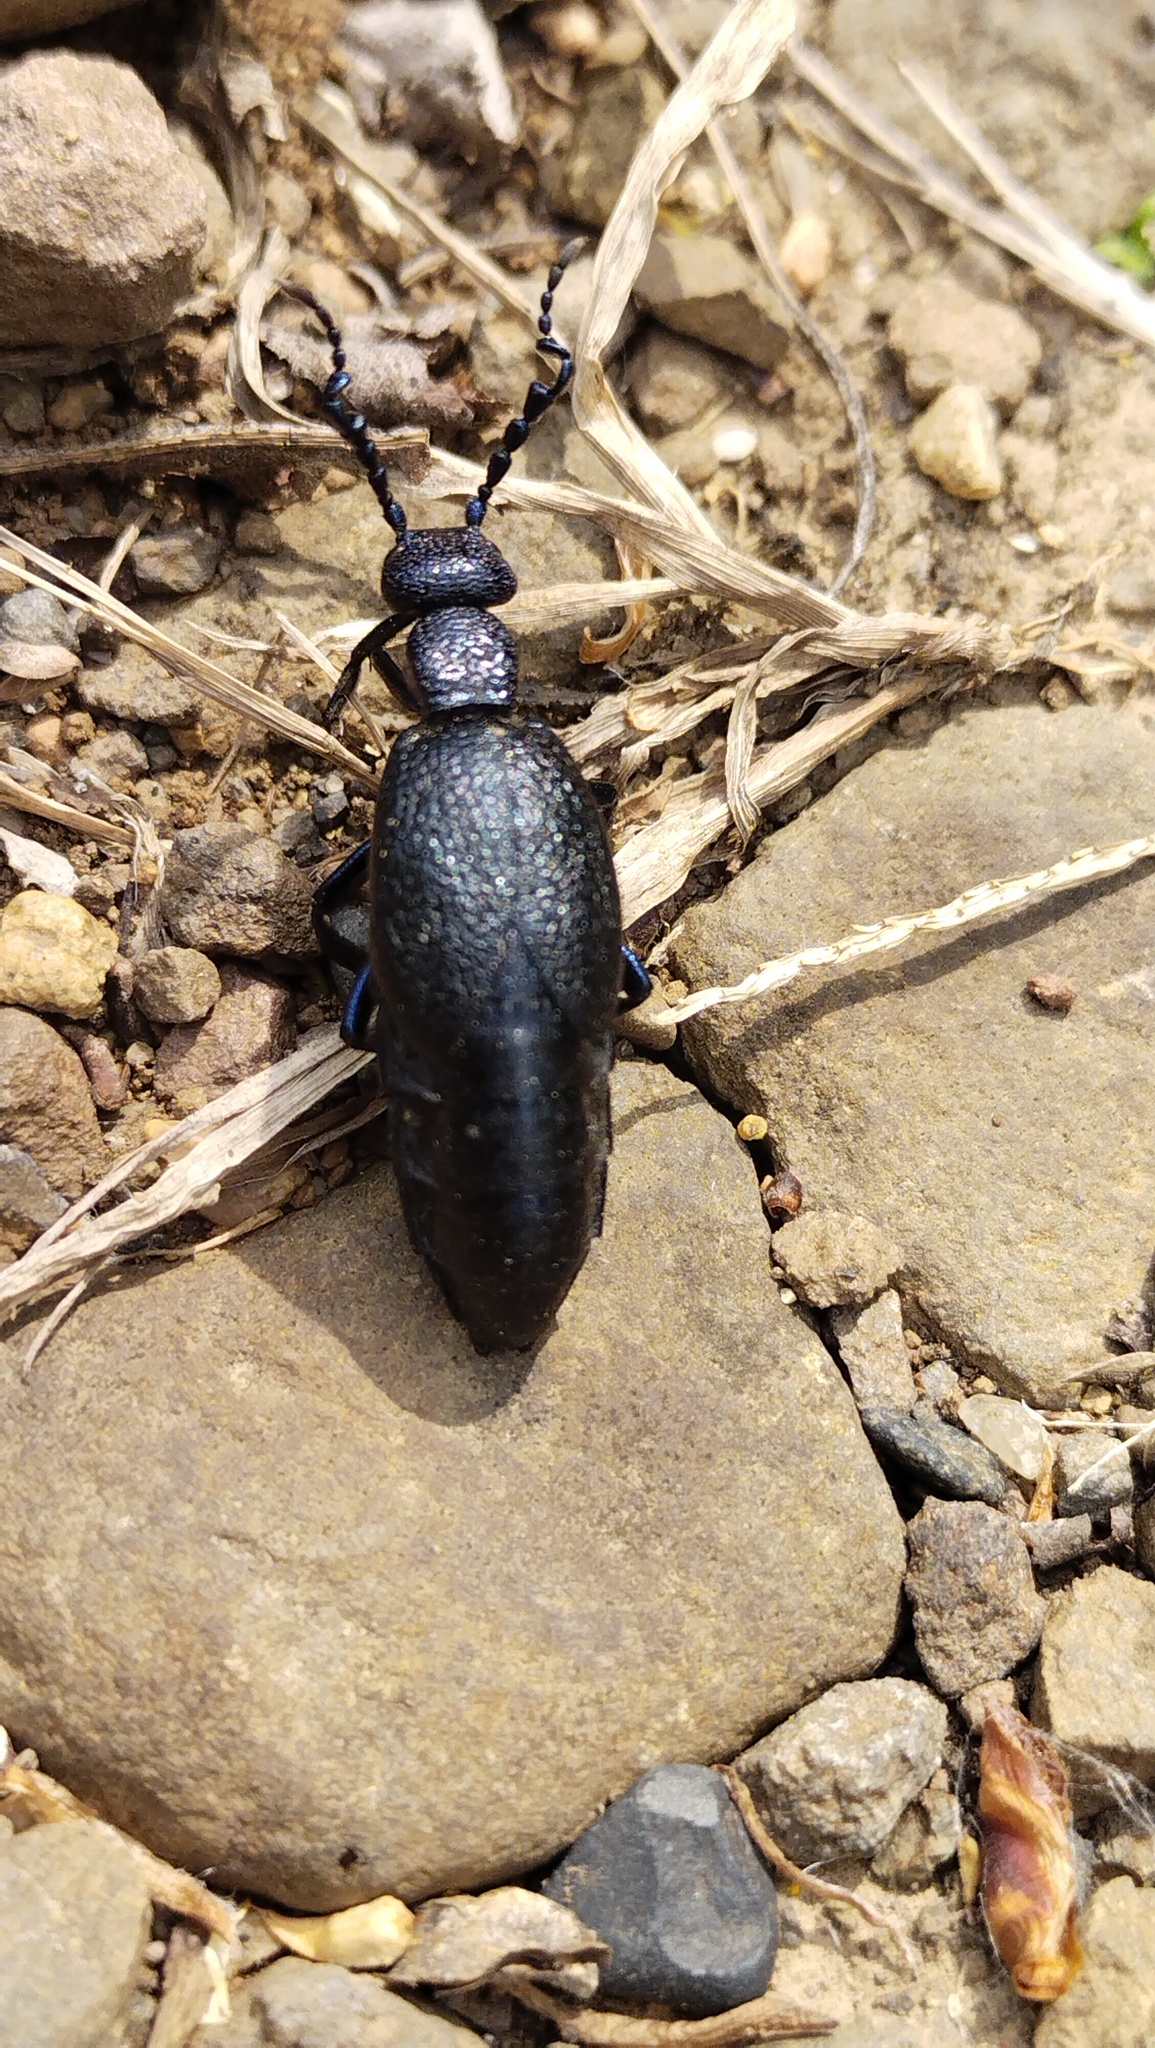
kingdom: Animalia
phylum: Arthropoda
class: Insecta
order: Coleoptera
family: Meloidae
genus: Meloe
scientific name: Meloe proscarabaeus
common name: Black oil-beetle
